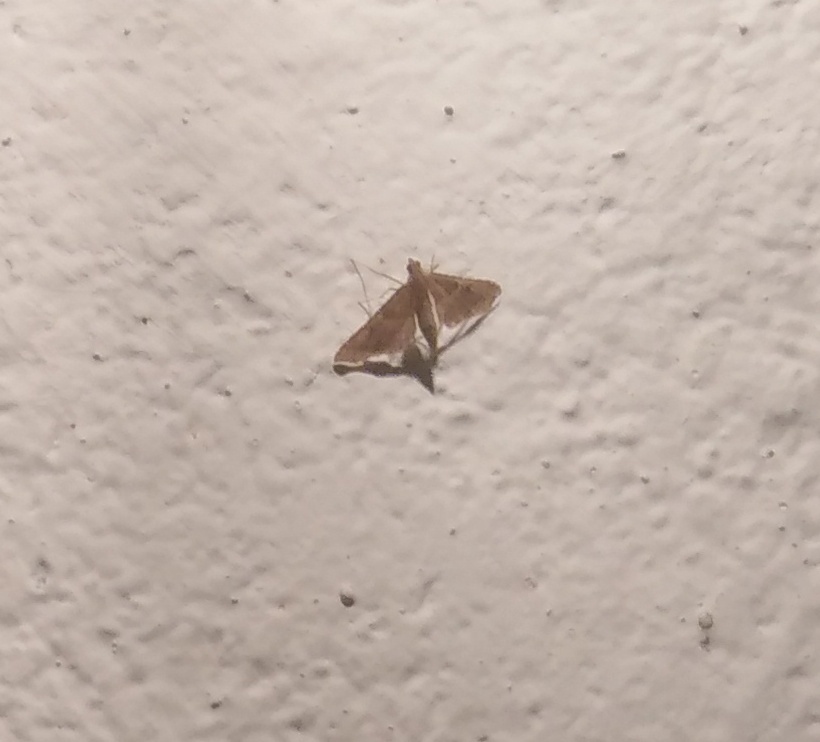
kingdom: Animalia
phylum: Arthropoda
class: Insecta
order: Lepidoptera
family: Pyralidae
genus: Endotricha
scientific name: Endotricha flammealis
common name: Rosy tabby
